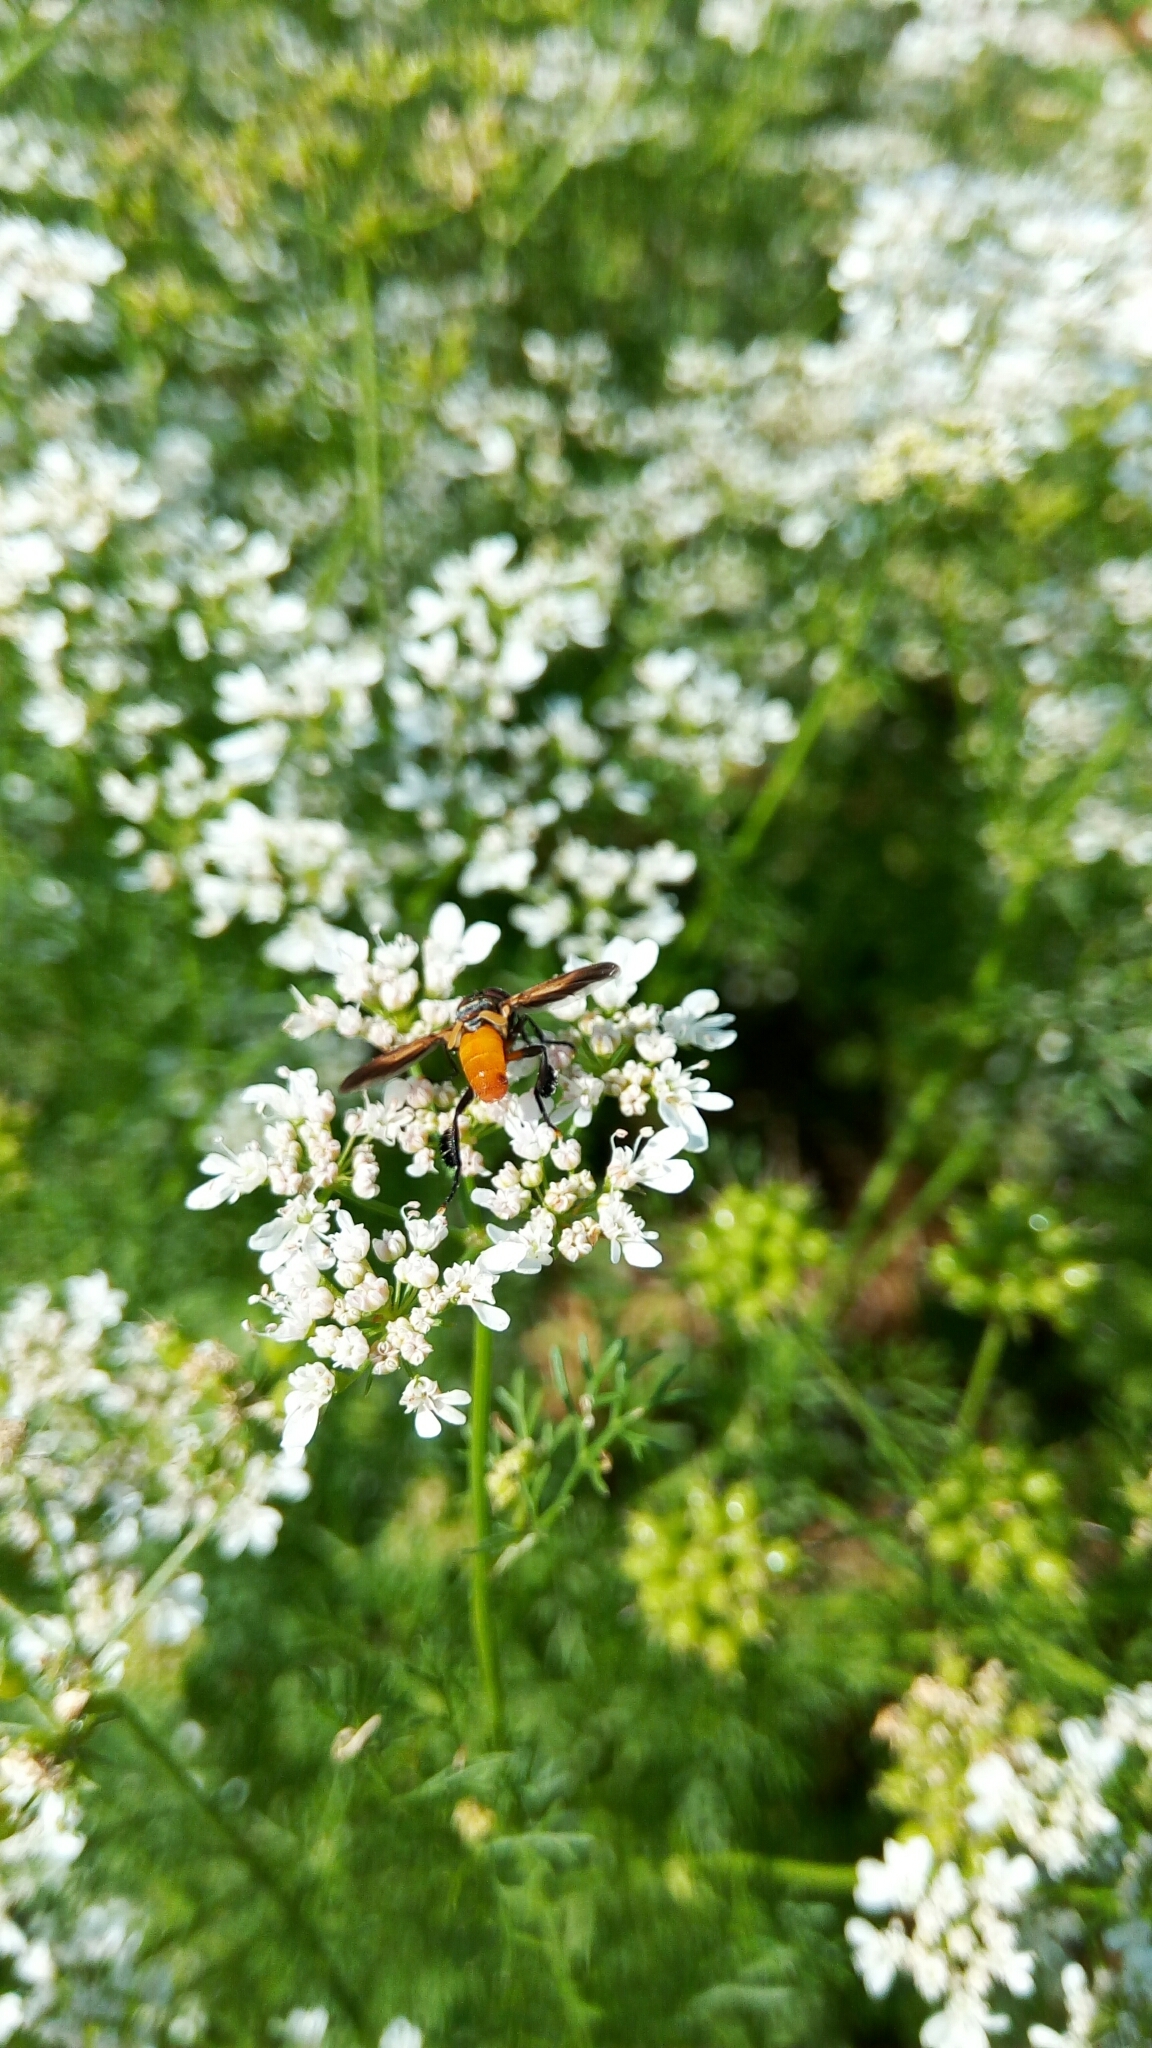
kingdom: Animalia
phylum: Arthropoda
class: Insecta
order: Diptera
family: Tachinidae
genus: Trichopoda
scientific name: Trichopoda pennipes
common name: Tachinid fly
